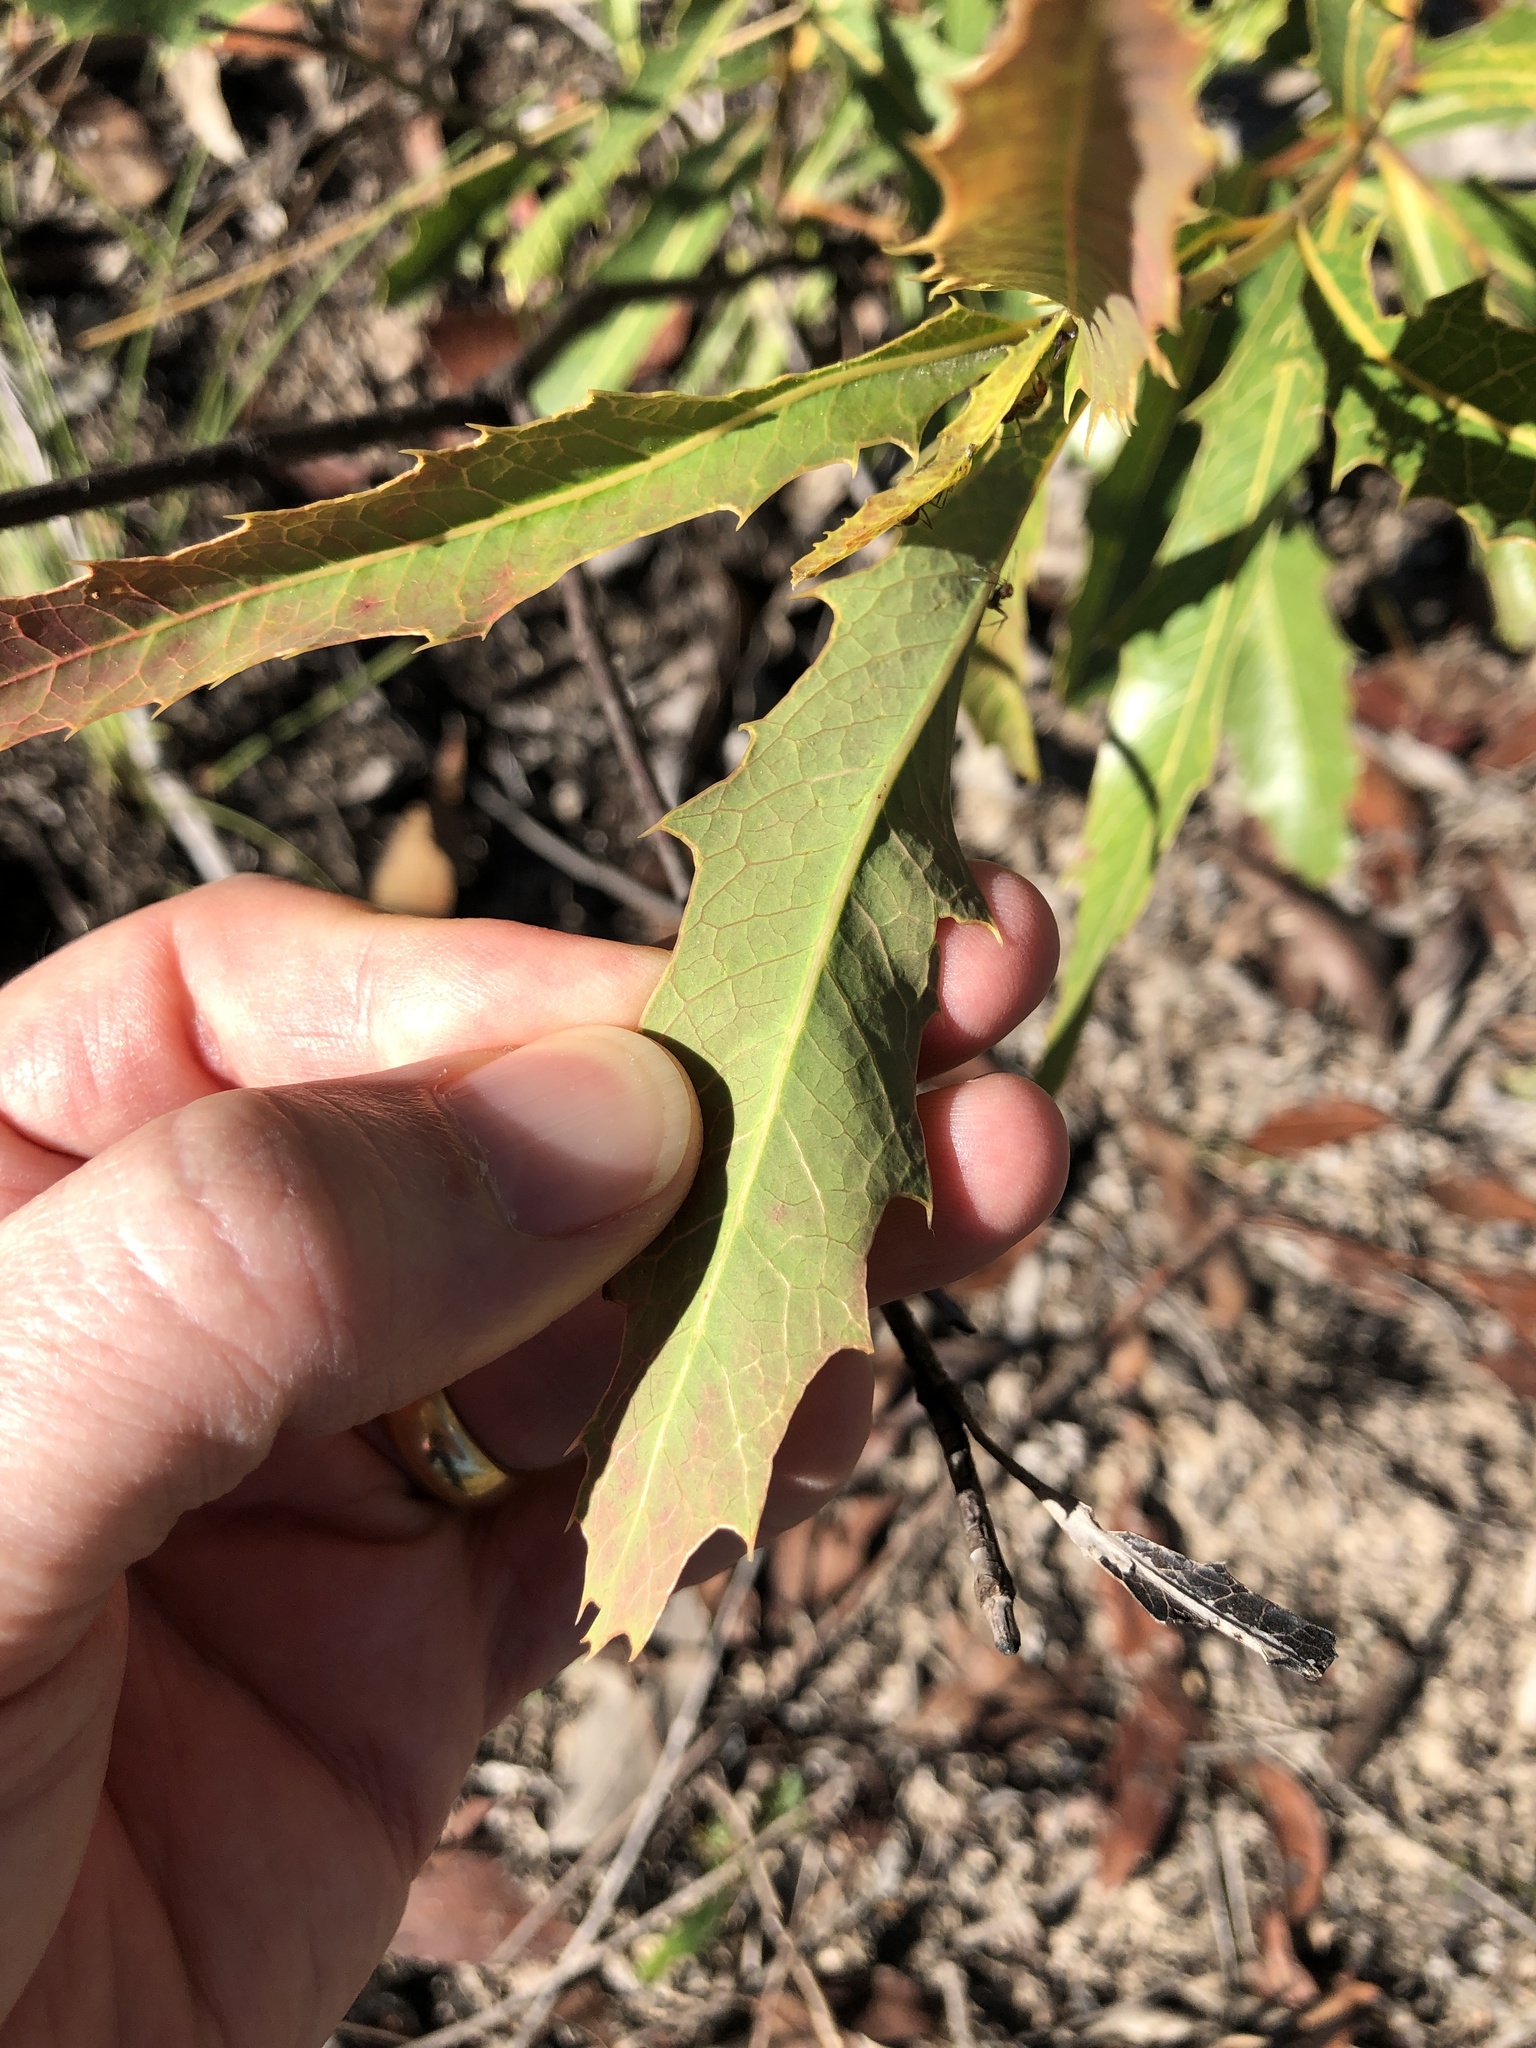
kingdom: Plantae
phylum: Tracheophyta
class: Magnoliopsida
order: Proteales
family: Proteaceae
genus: Xylomelum
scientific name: Xylomelum salicinum
